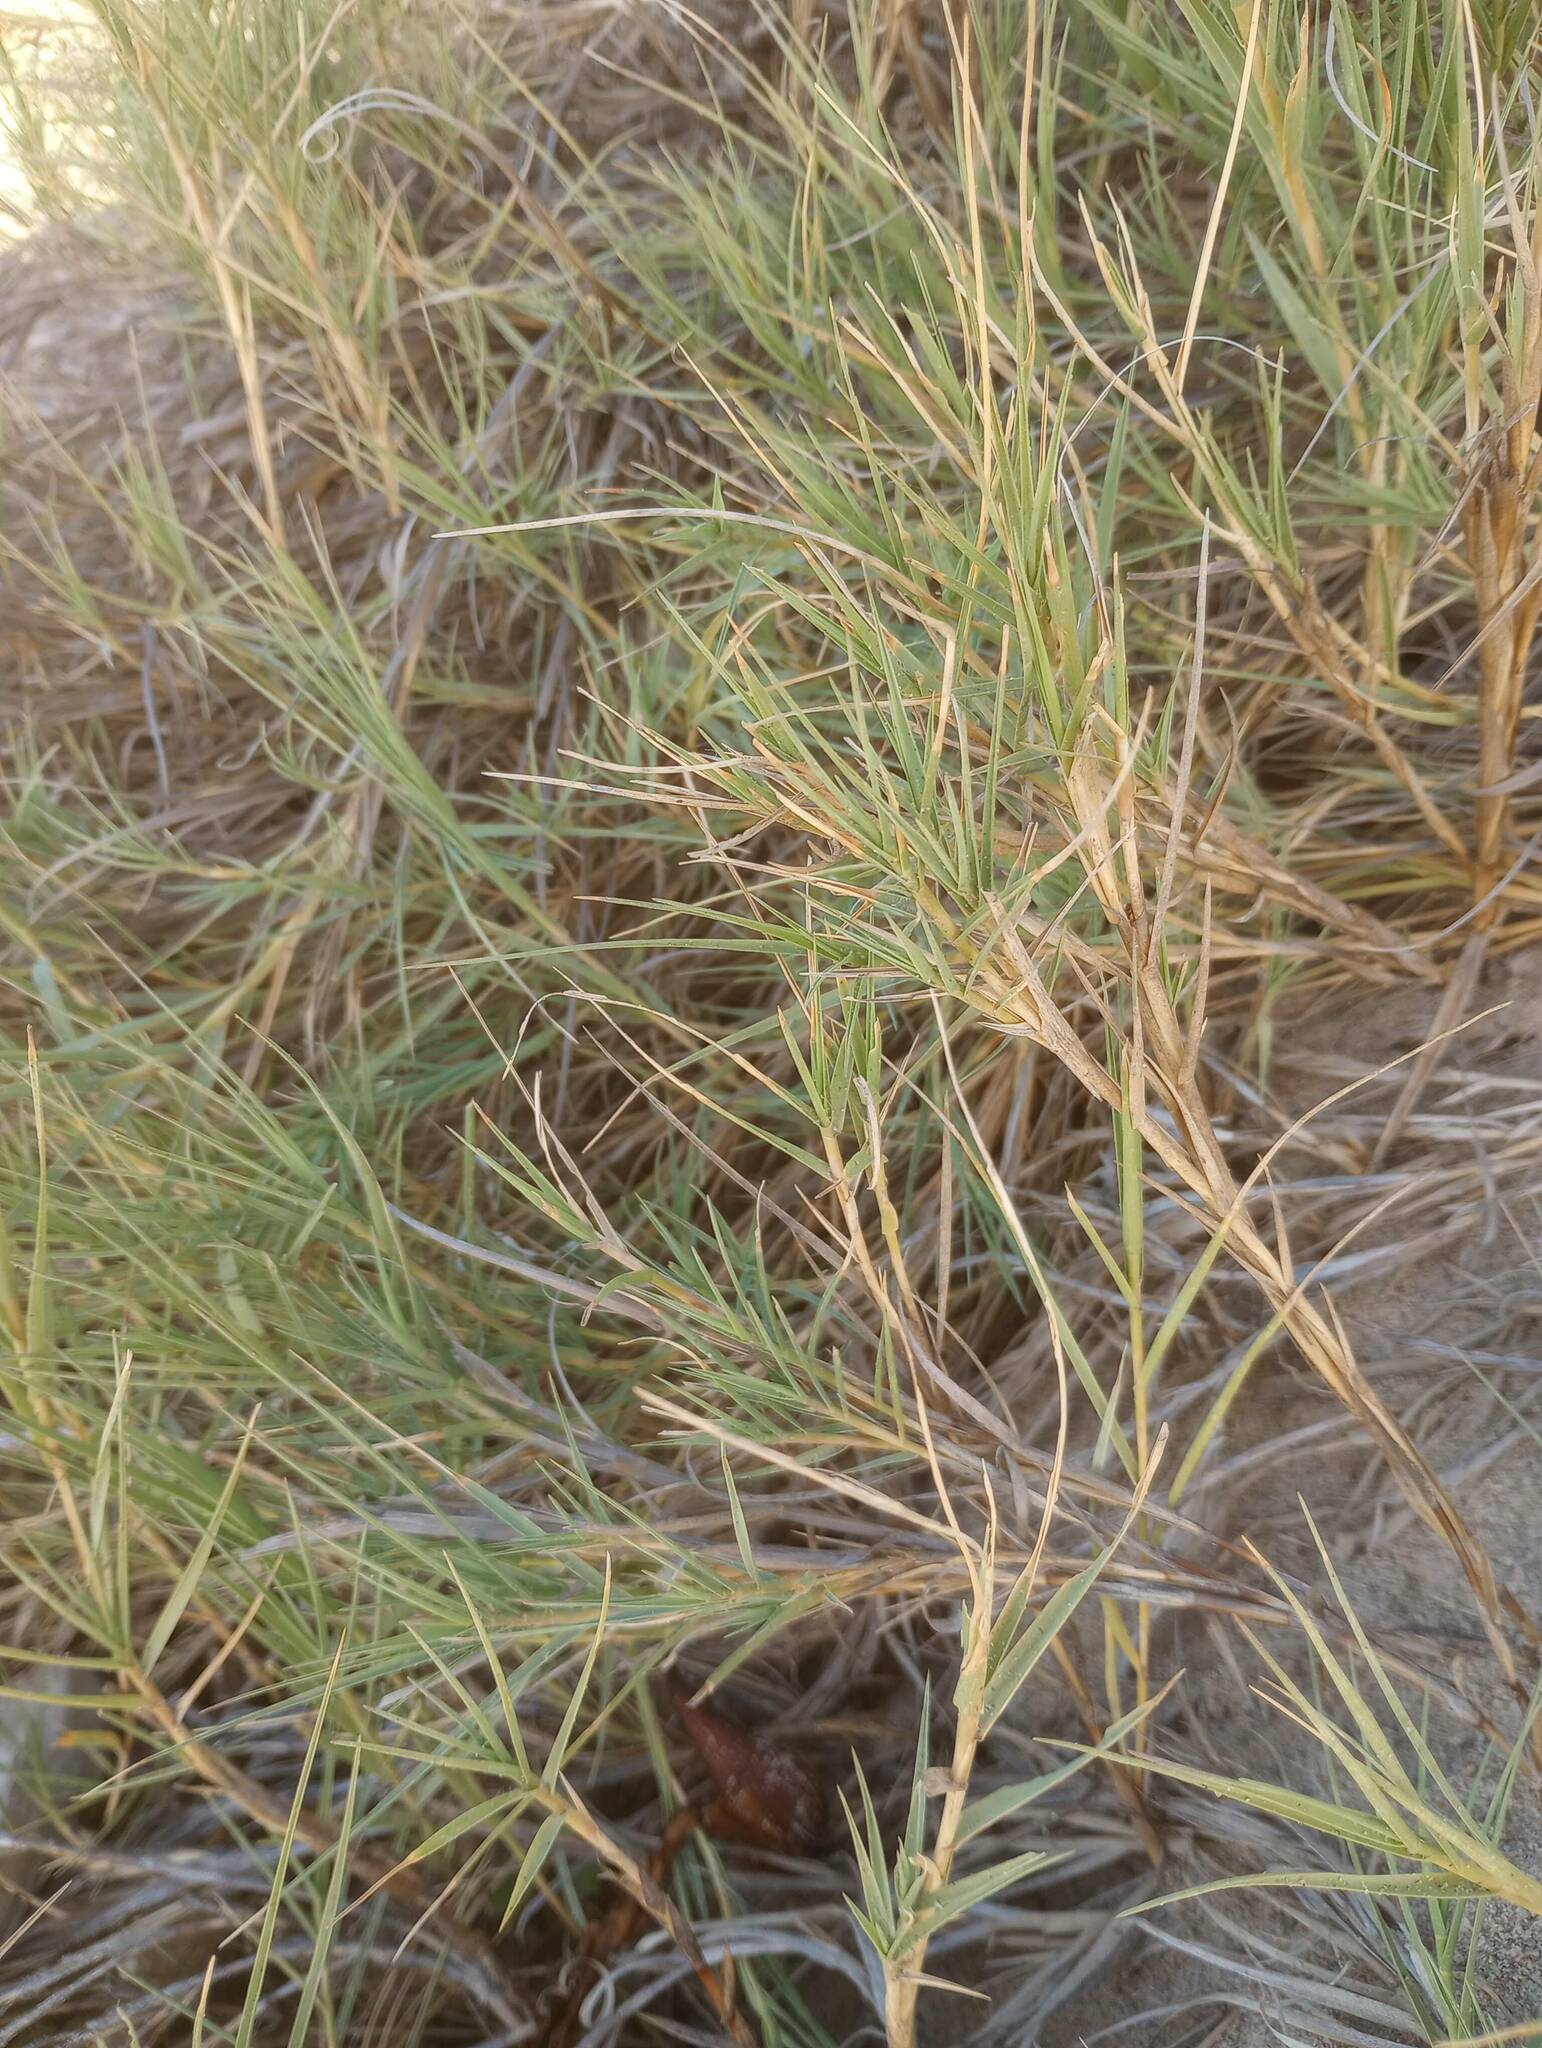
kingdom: Plantae
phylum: Tracheophyta
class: Liliopsida
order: Poales
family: Poaceae
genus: Distichlis
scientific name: Distichlis spicata
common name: Saltgrass
